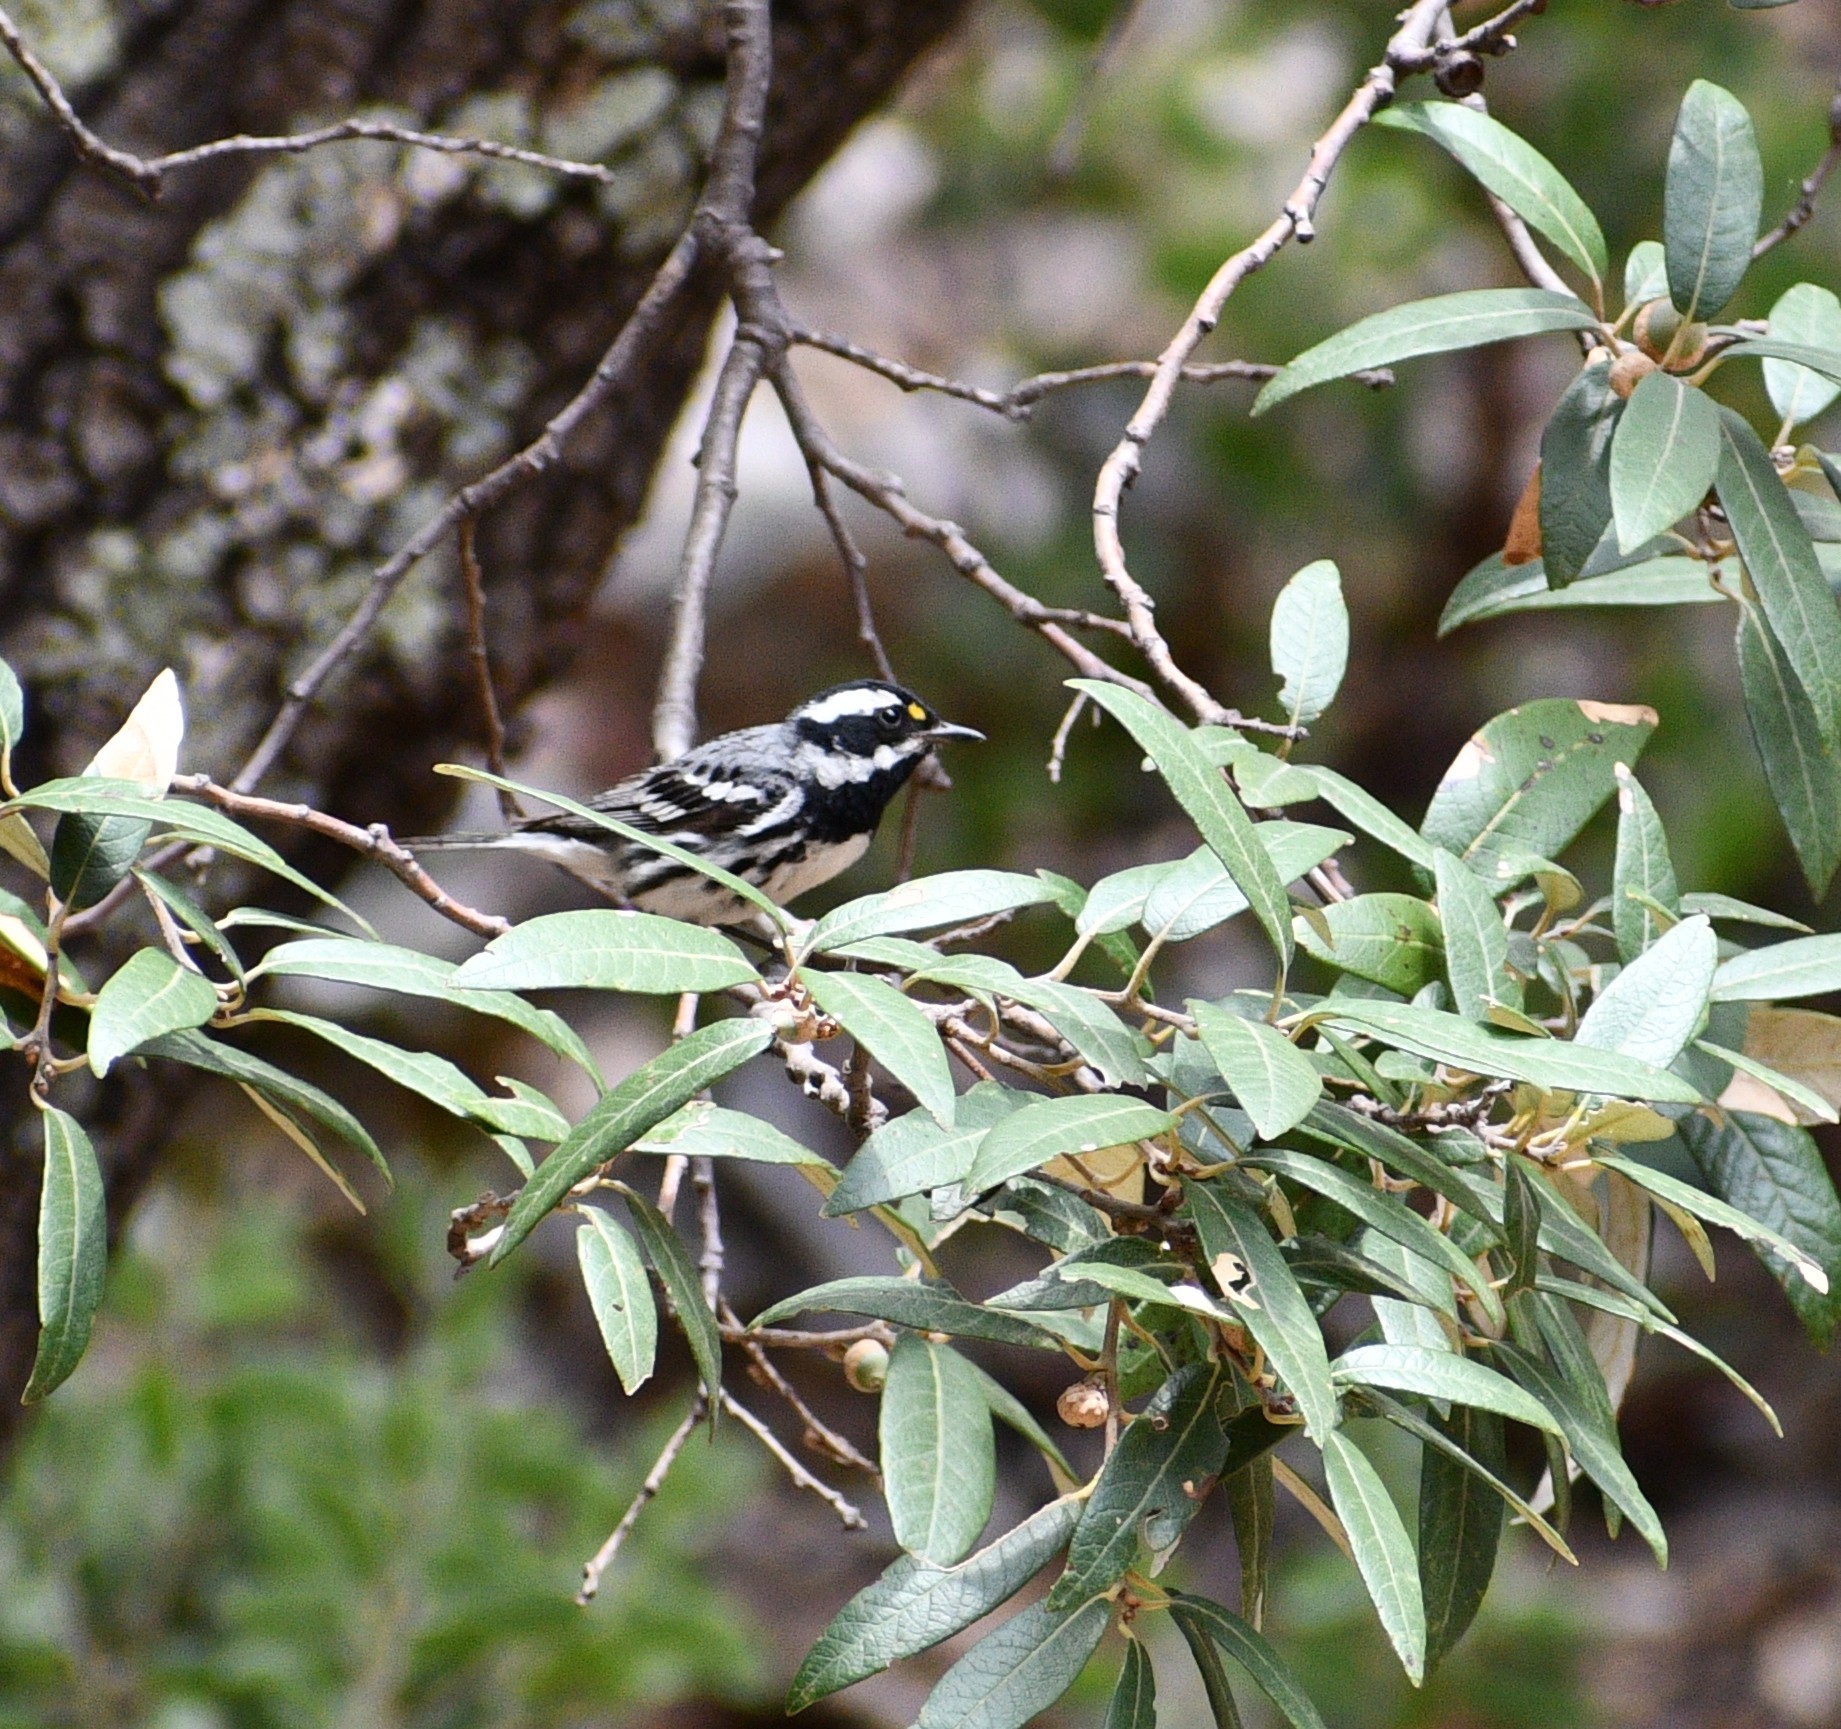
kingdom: Animalia
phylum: Chordata
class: Aves
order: Passeriformes
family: Parulidae
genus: Setophaga
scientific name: Setophaga nigrescens
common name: Black-throated gray warbler
